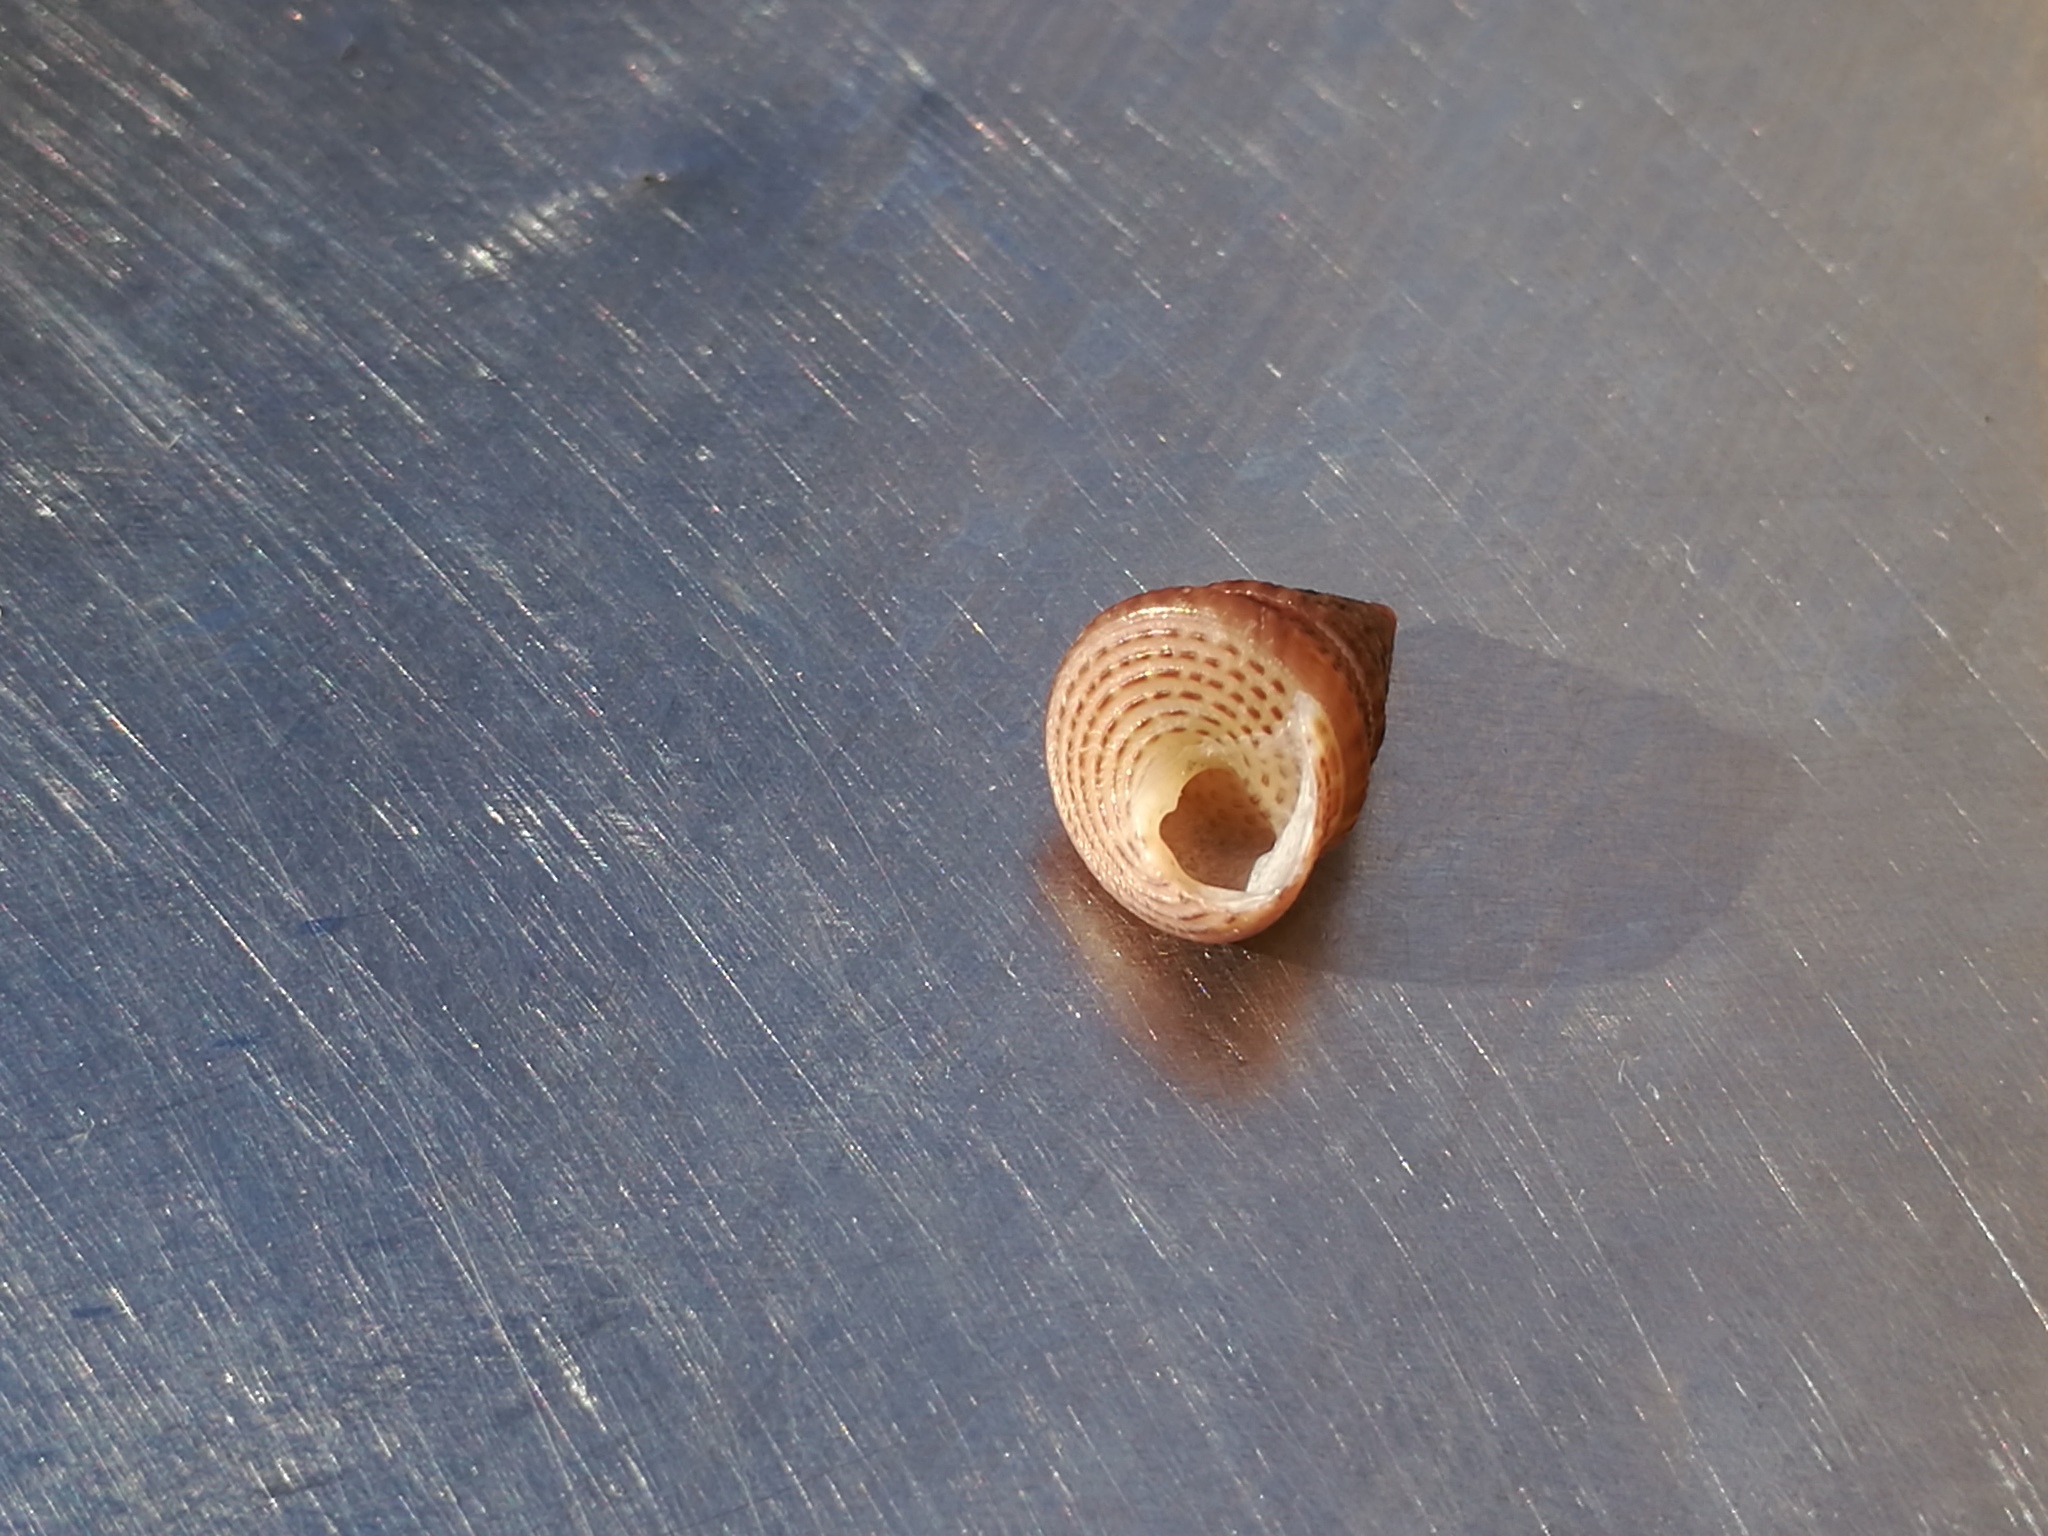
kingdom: Animalia
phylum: Mollusca
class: Gastropoda
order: Trochida
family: Trochidae
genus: Jujubinus
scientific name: Jujubinus exasperatus
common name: Rough top shell
